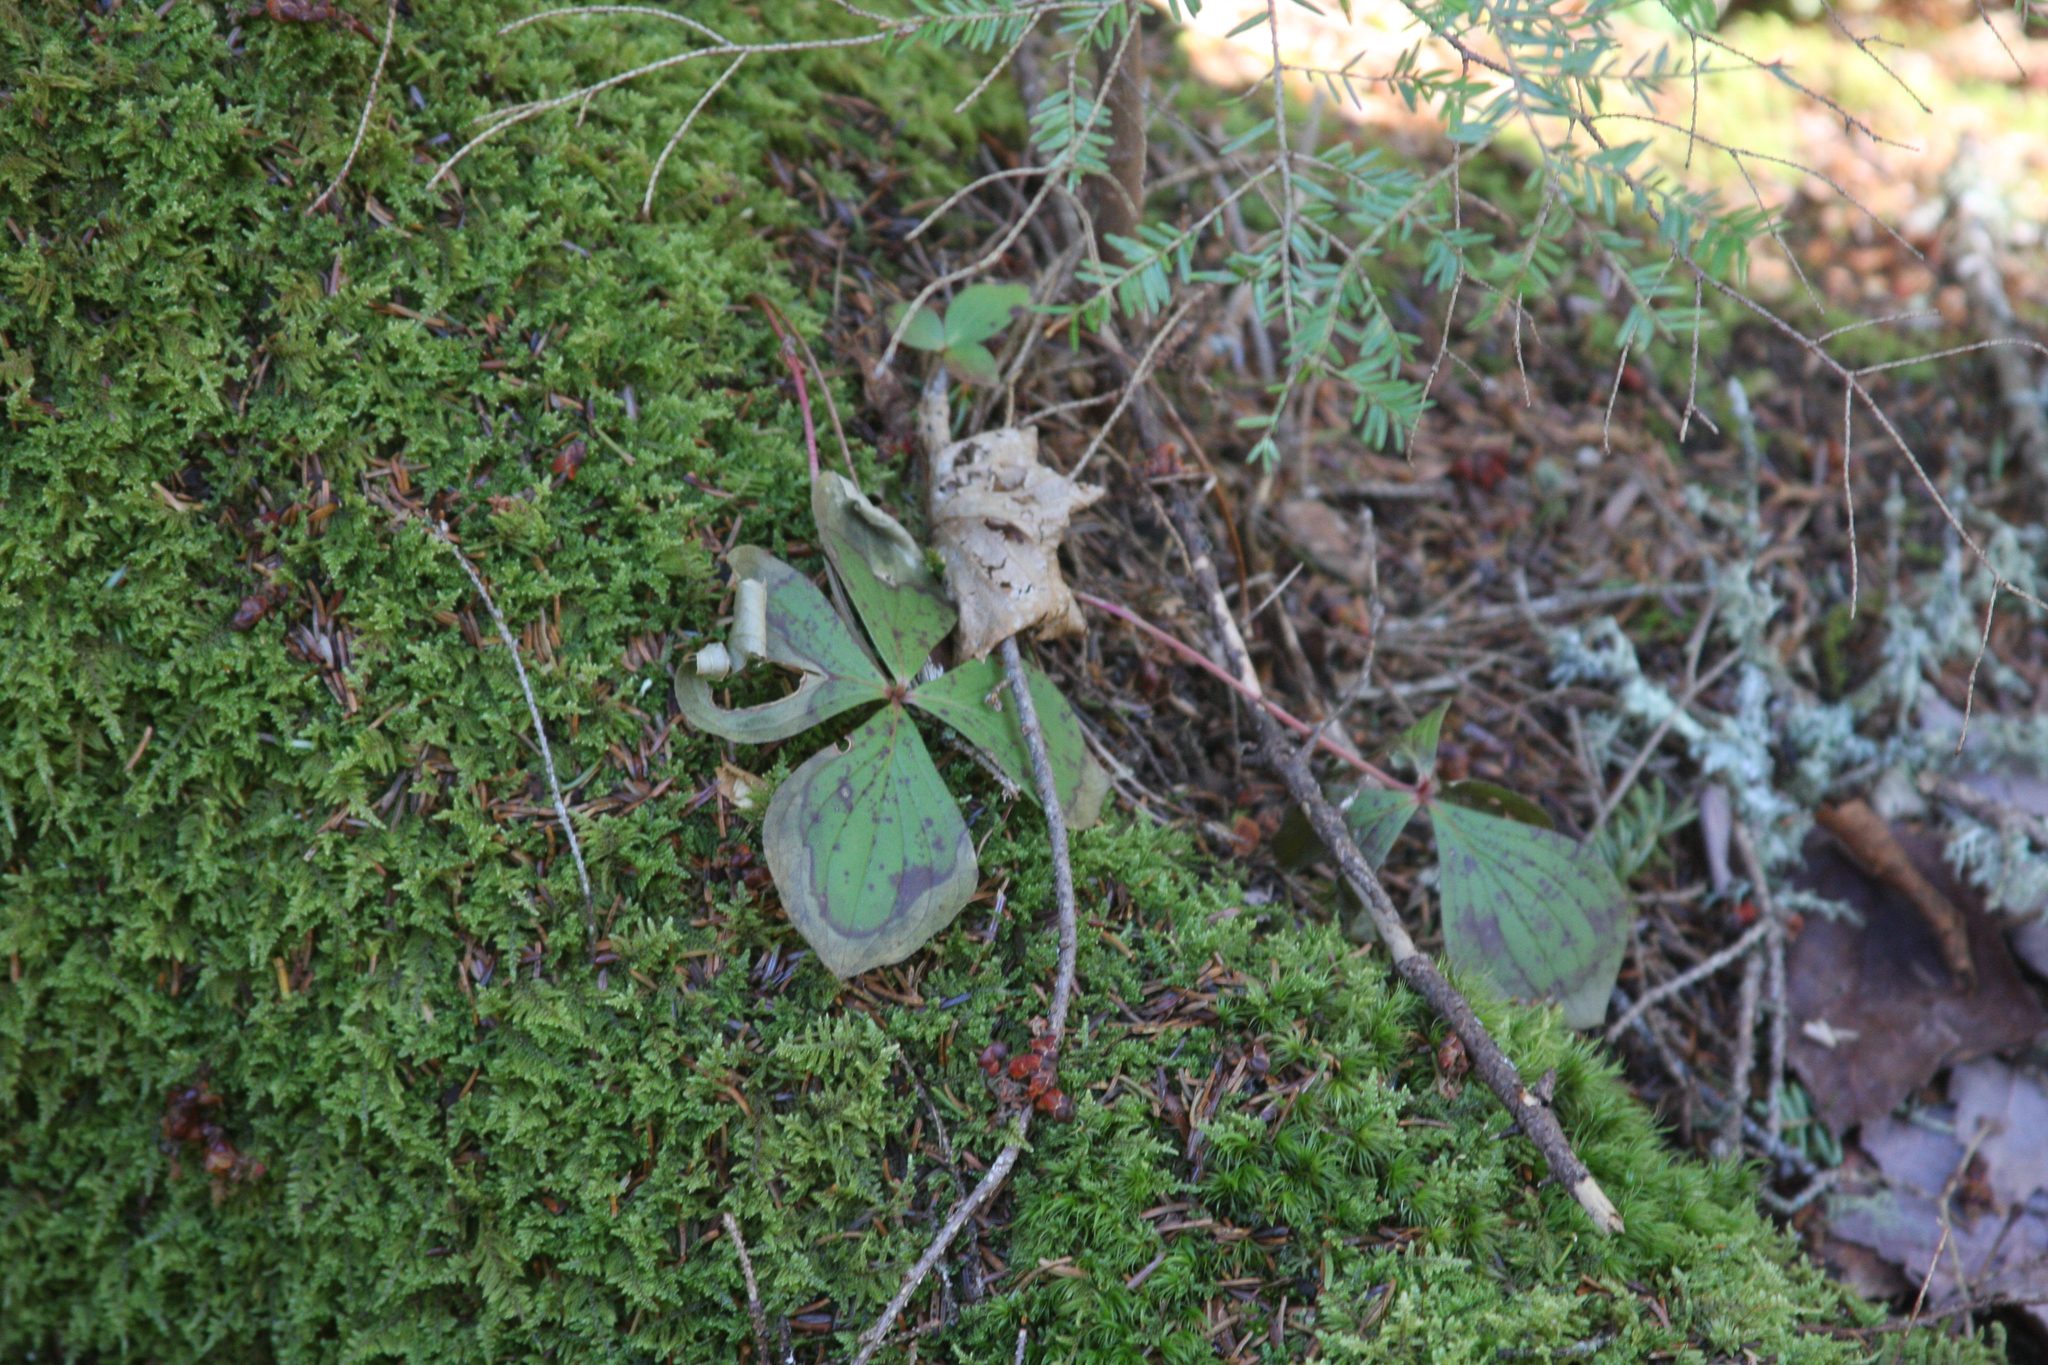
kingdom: Plantae
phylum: Tracheophyta
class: Magnoliopsida
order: Cornales
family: Cornaceae
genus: Cornus
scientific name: Cornus canadensis
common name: Creeping dogwood
